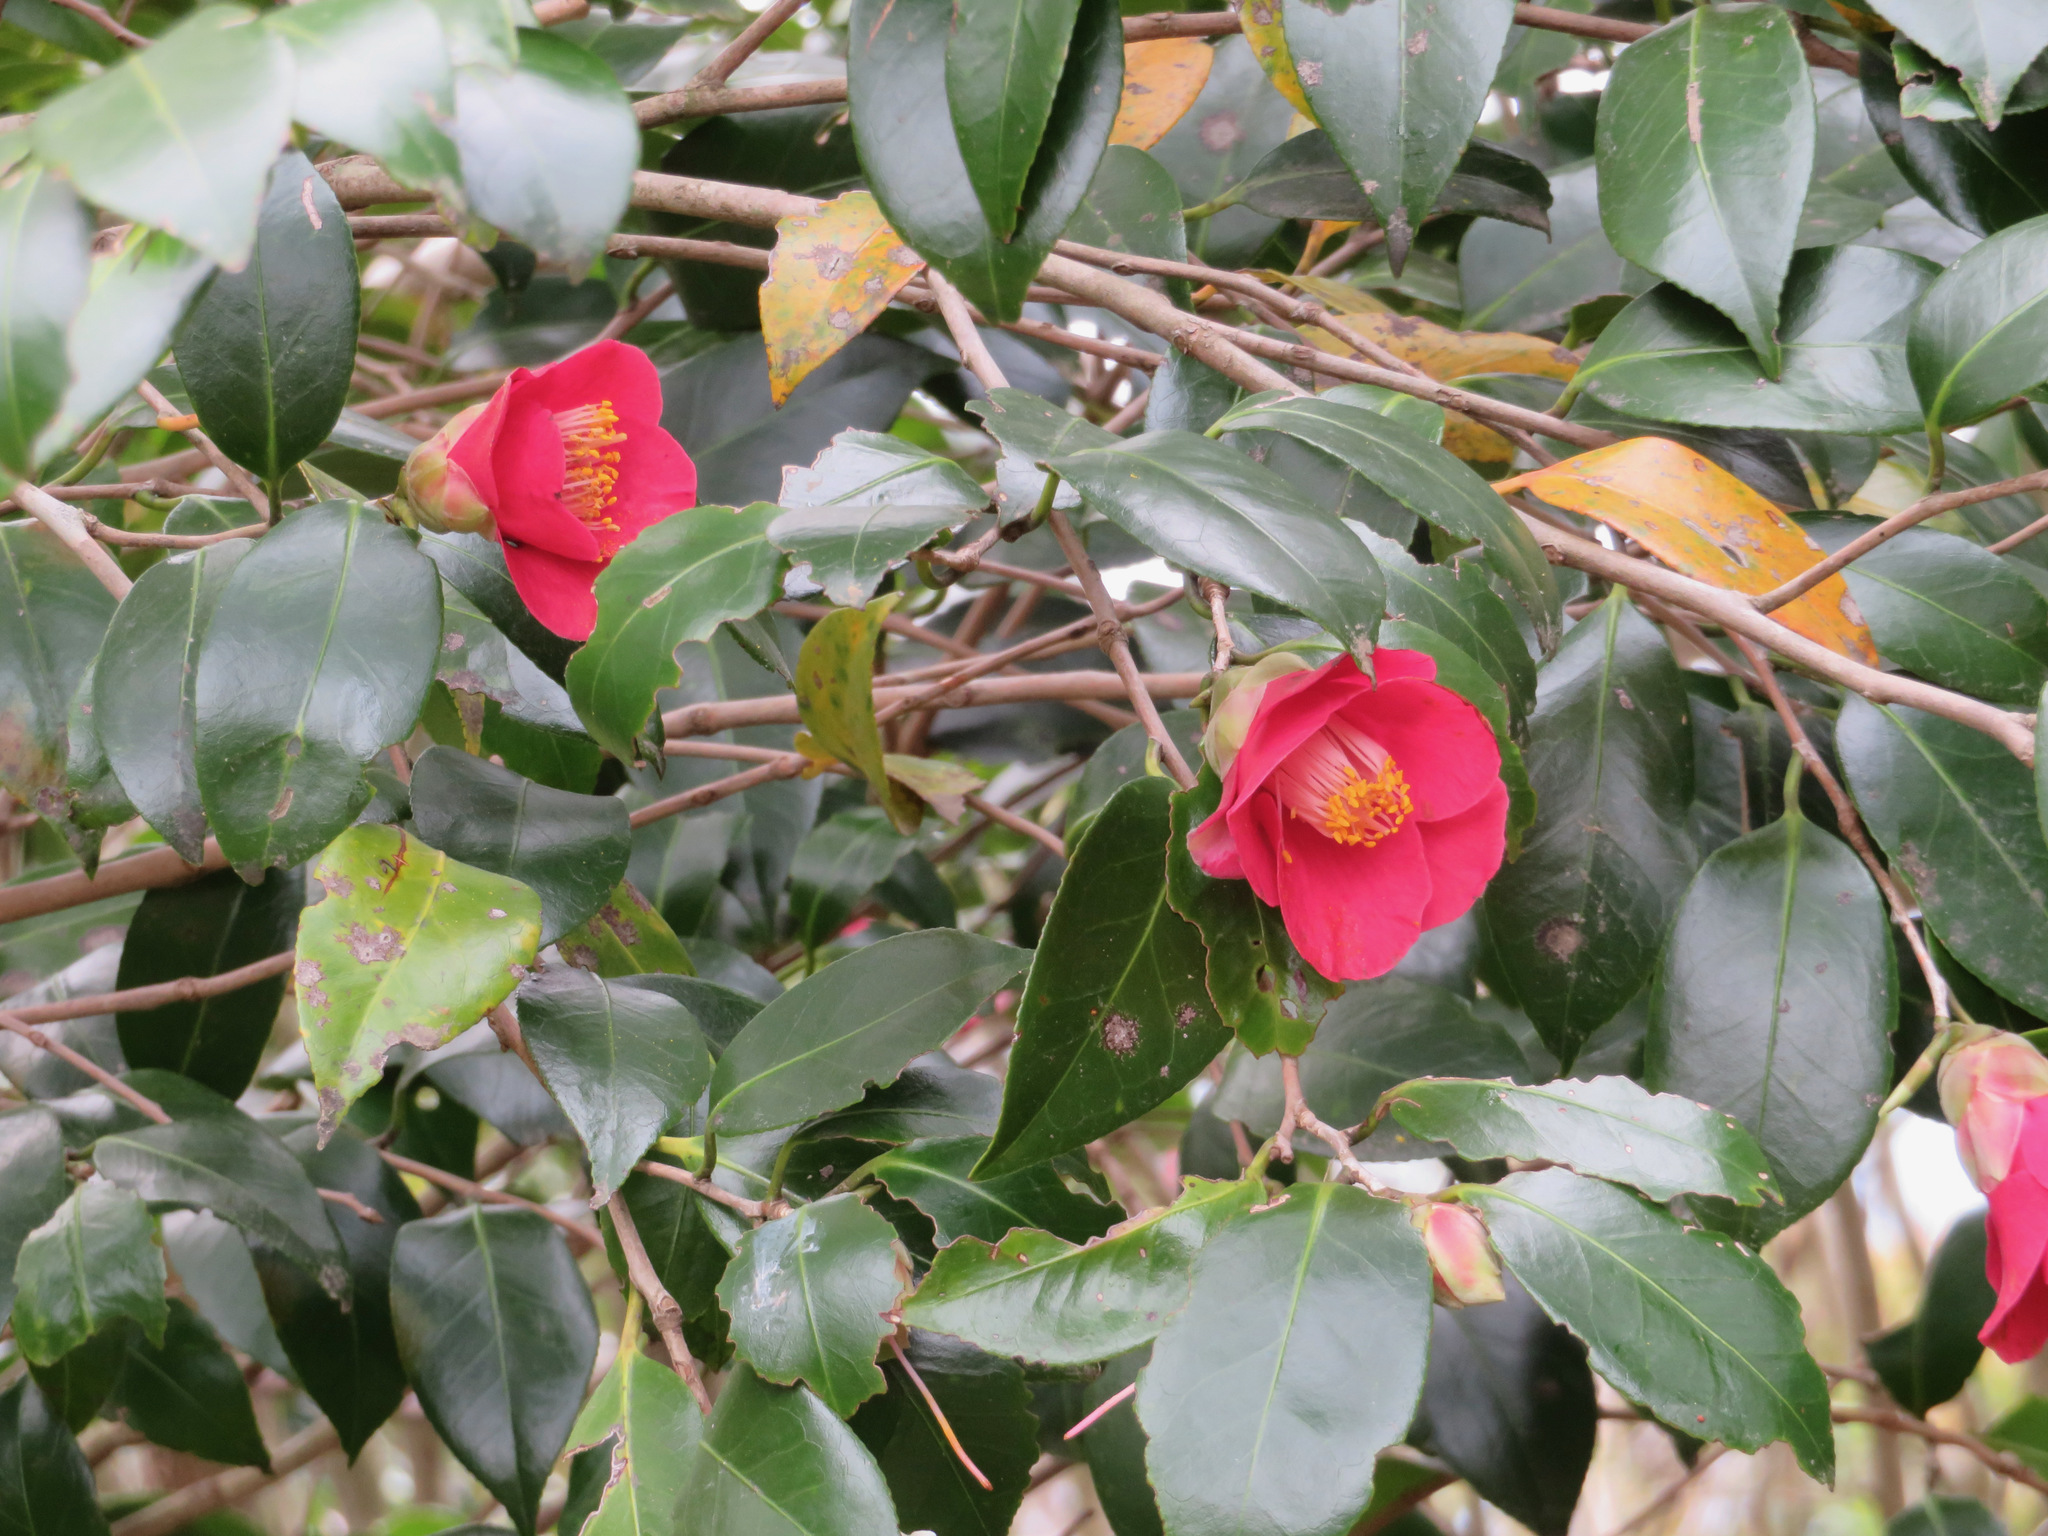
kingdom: Plantae
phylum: Tracheophyta
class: Magnoliopsida
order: Ericales
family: Theaceae
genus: Camellia
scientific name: Camellia japonica
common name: Camellia
